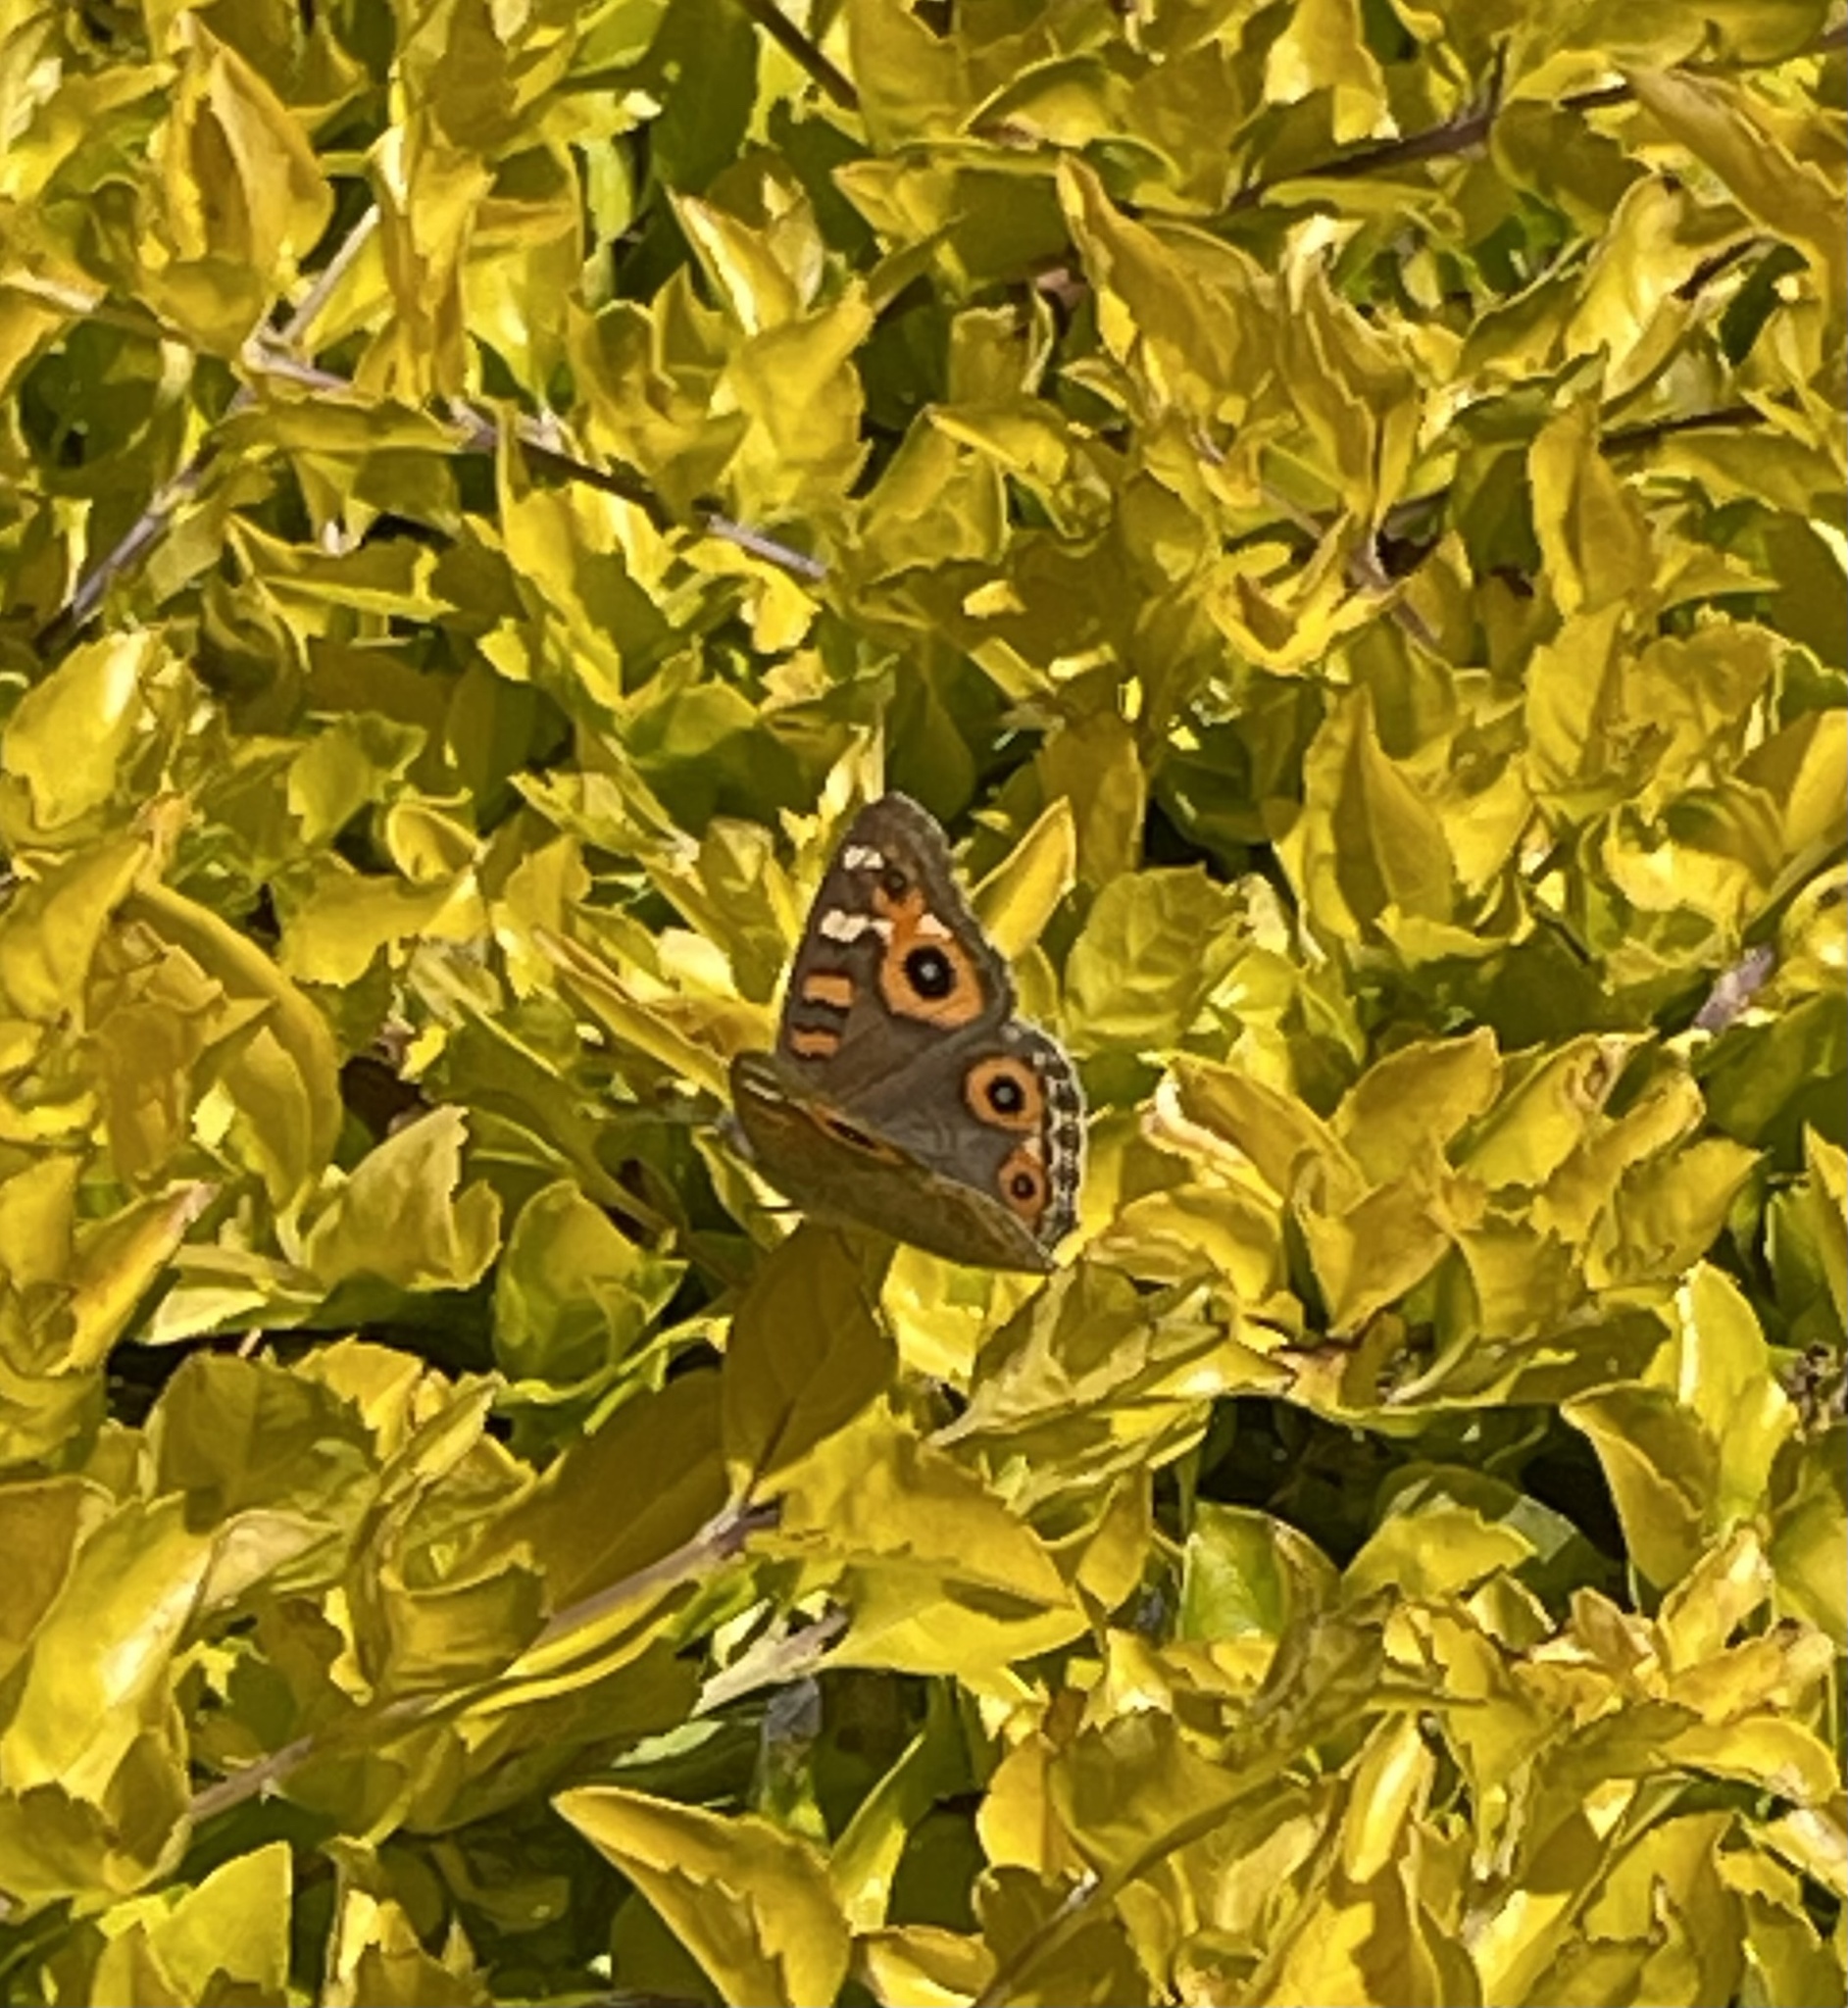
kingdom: Animalia
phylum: Arthropoda
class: Insecta
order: Lepidoptera
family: Nymphalidae
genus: Junonia
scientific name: Junonia villida
